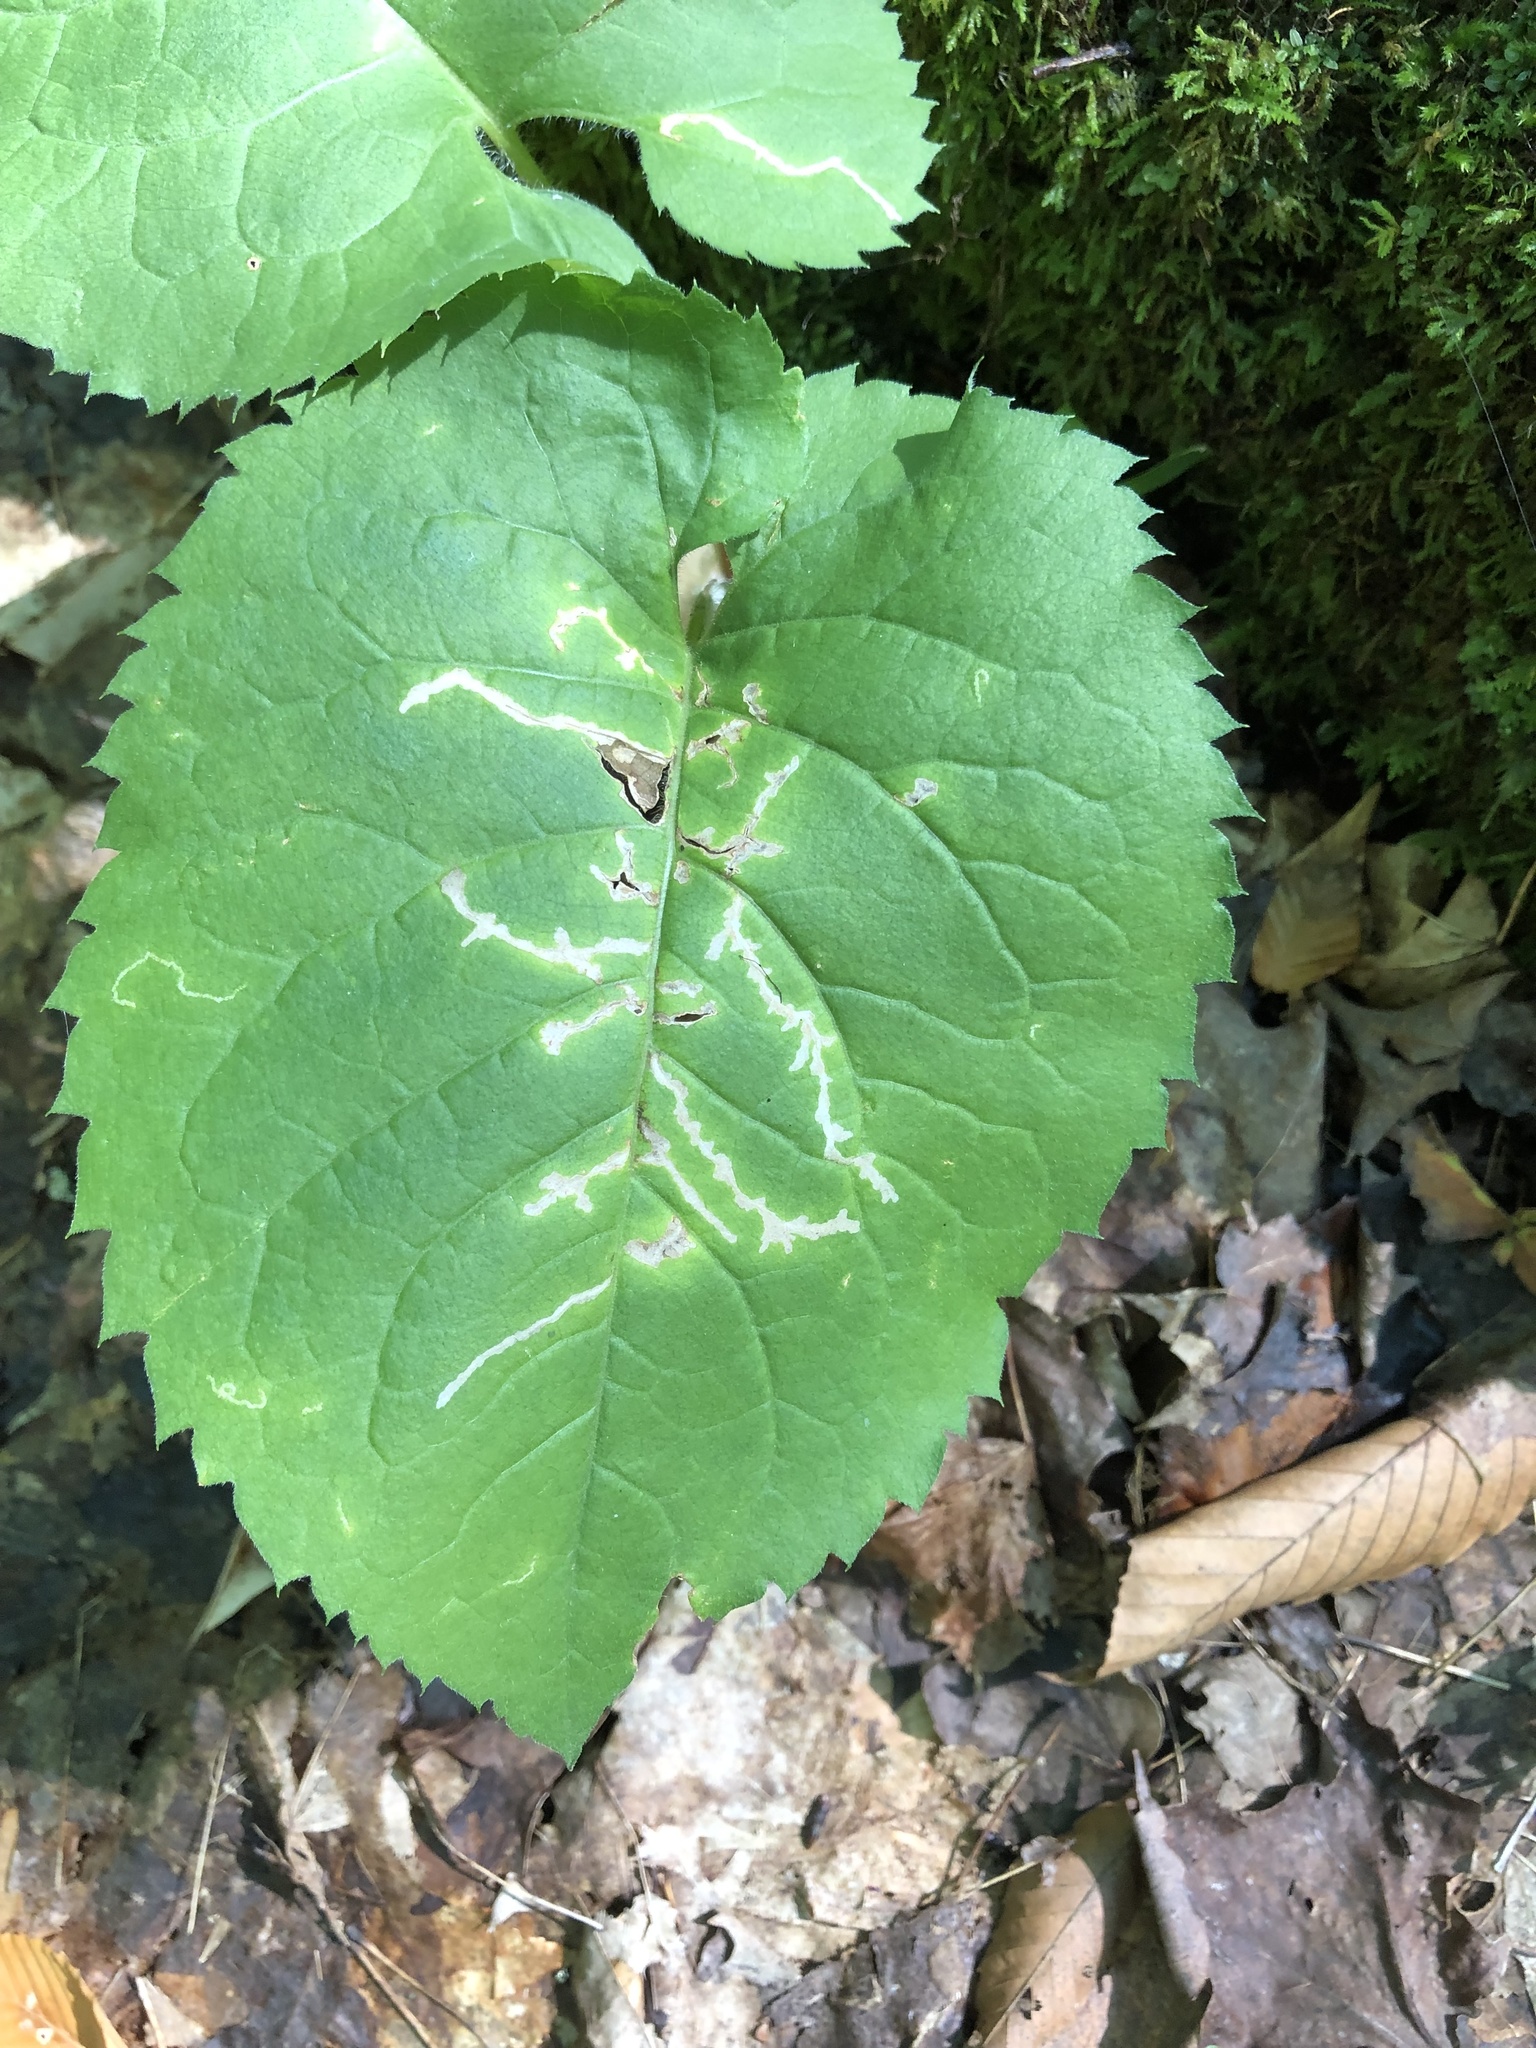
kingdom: Animalia
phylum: Arthropoda
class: Insecta
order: Lepidoptera
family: Gelechiidae
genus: Scrobipalpula
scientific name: Scrobipalpula manierreorum
